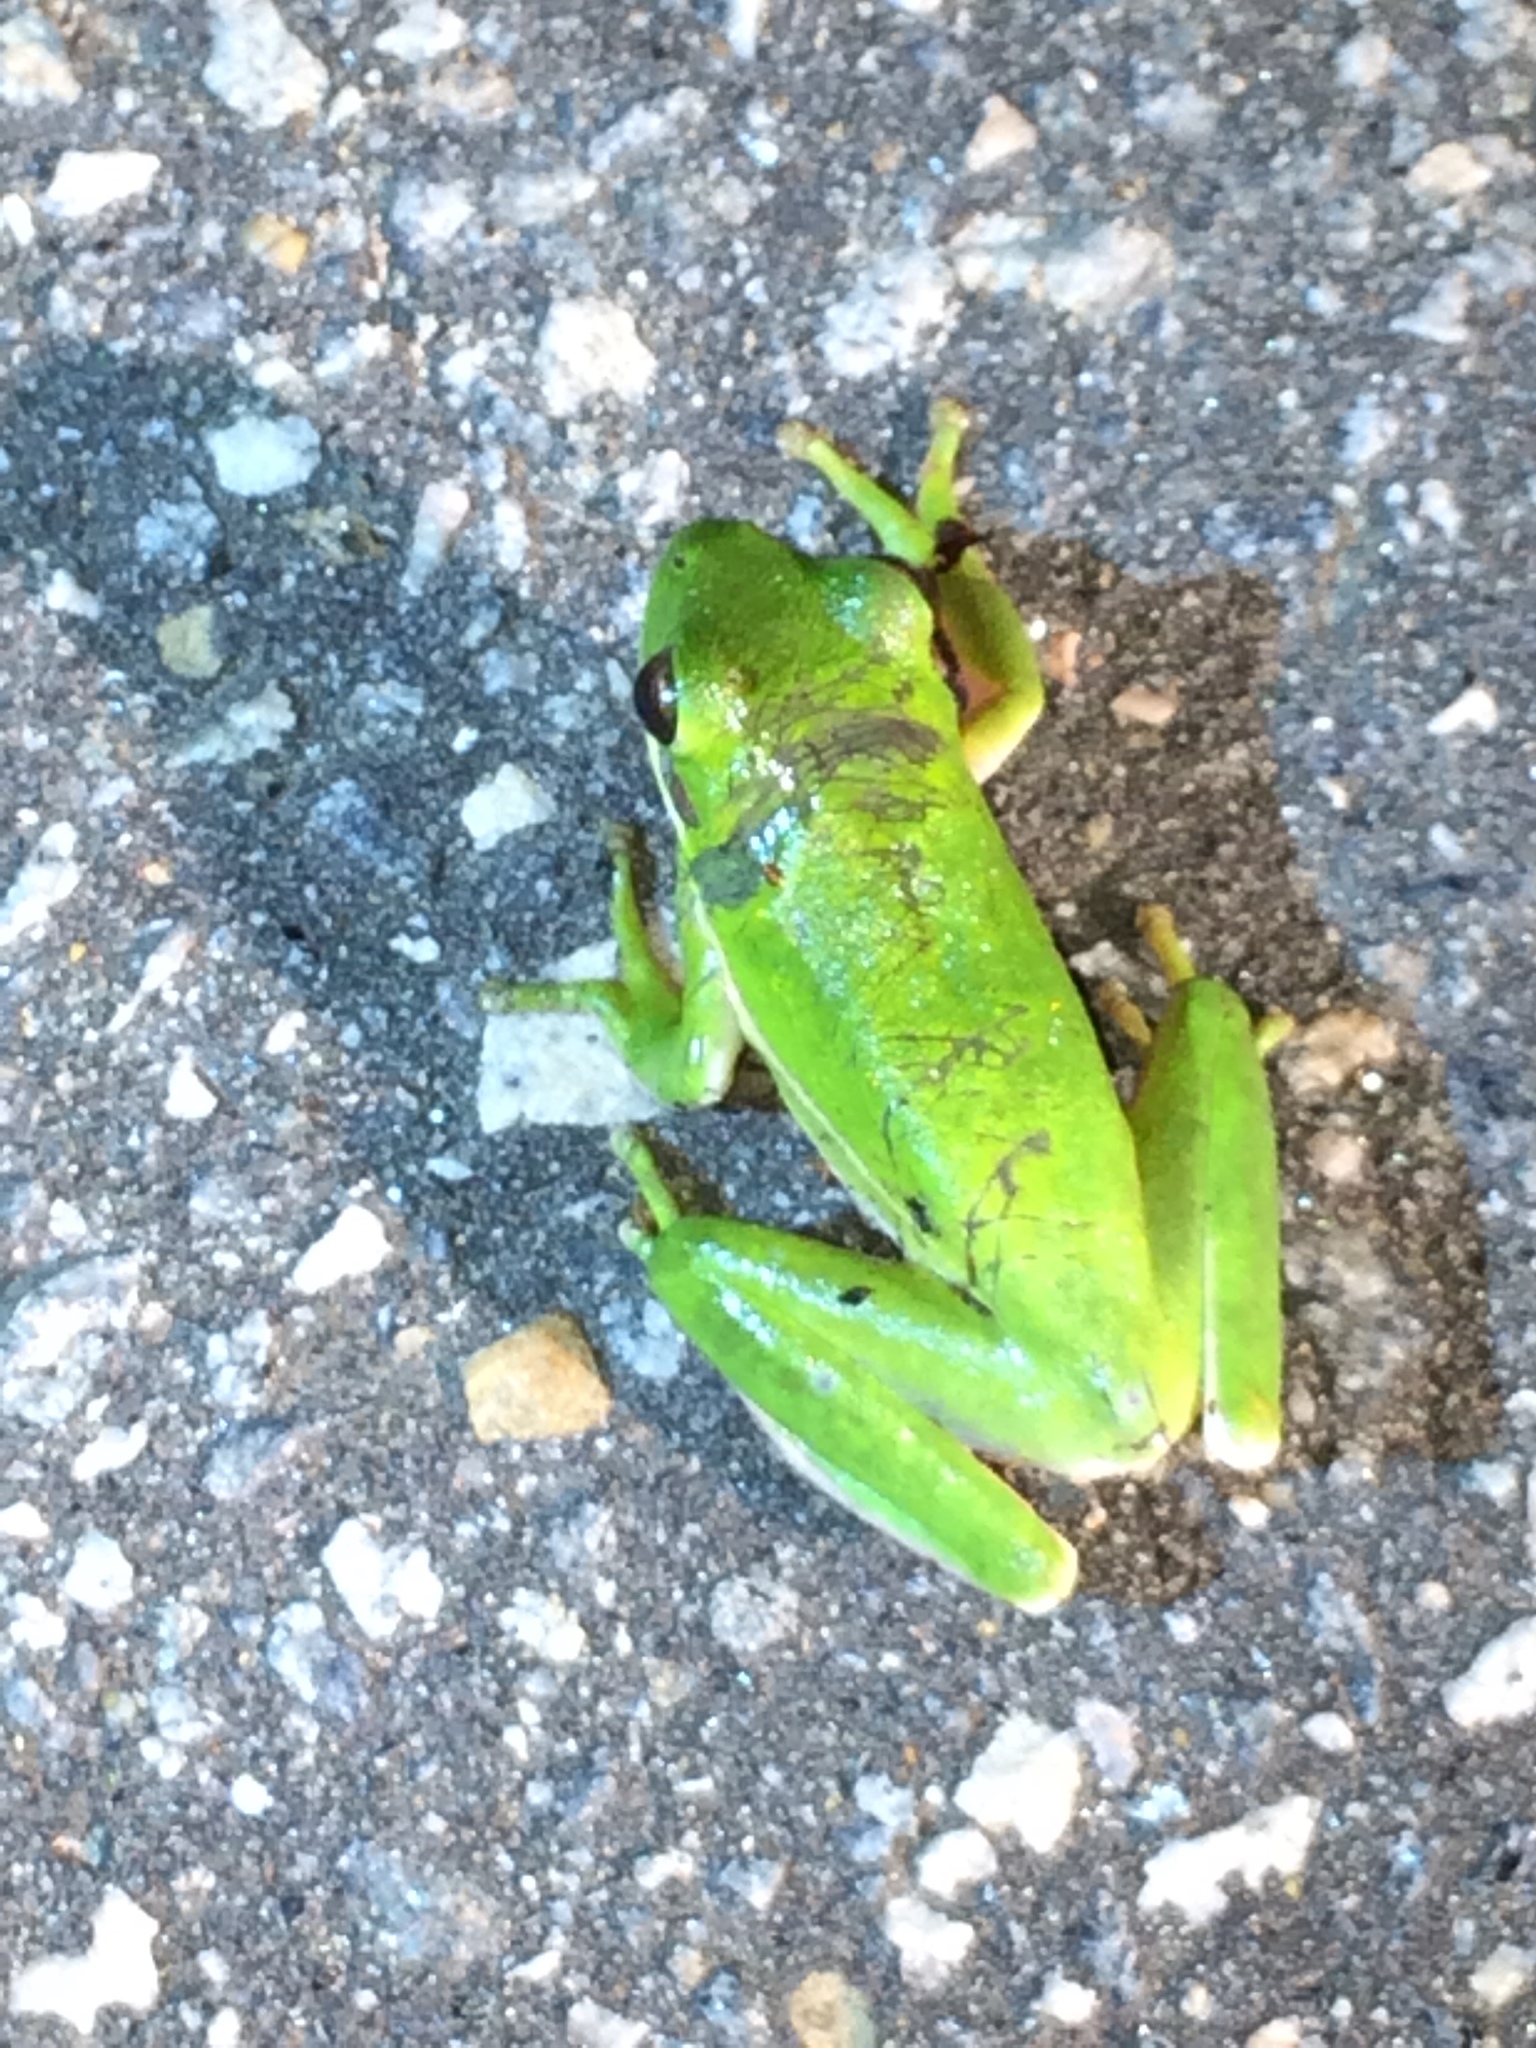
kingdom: Animalia
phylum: Chordata
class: Amphibia
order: Anura
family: Hylidae
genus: Dryophytes
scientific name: Dryophytes cinereus
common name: Green treefrog
